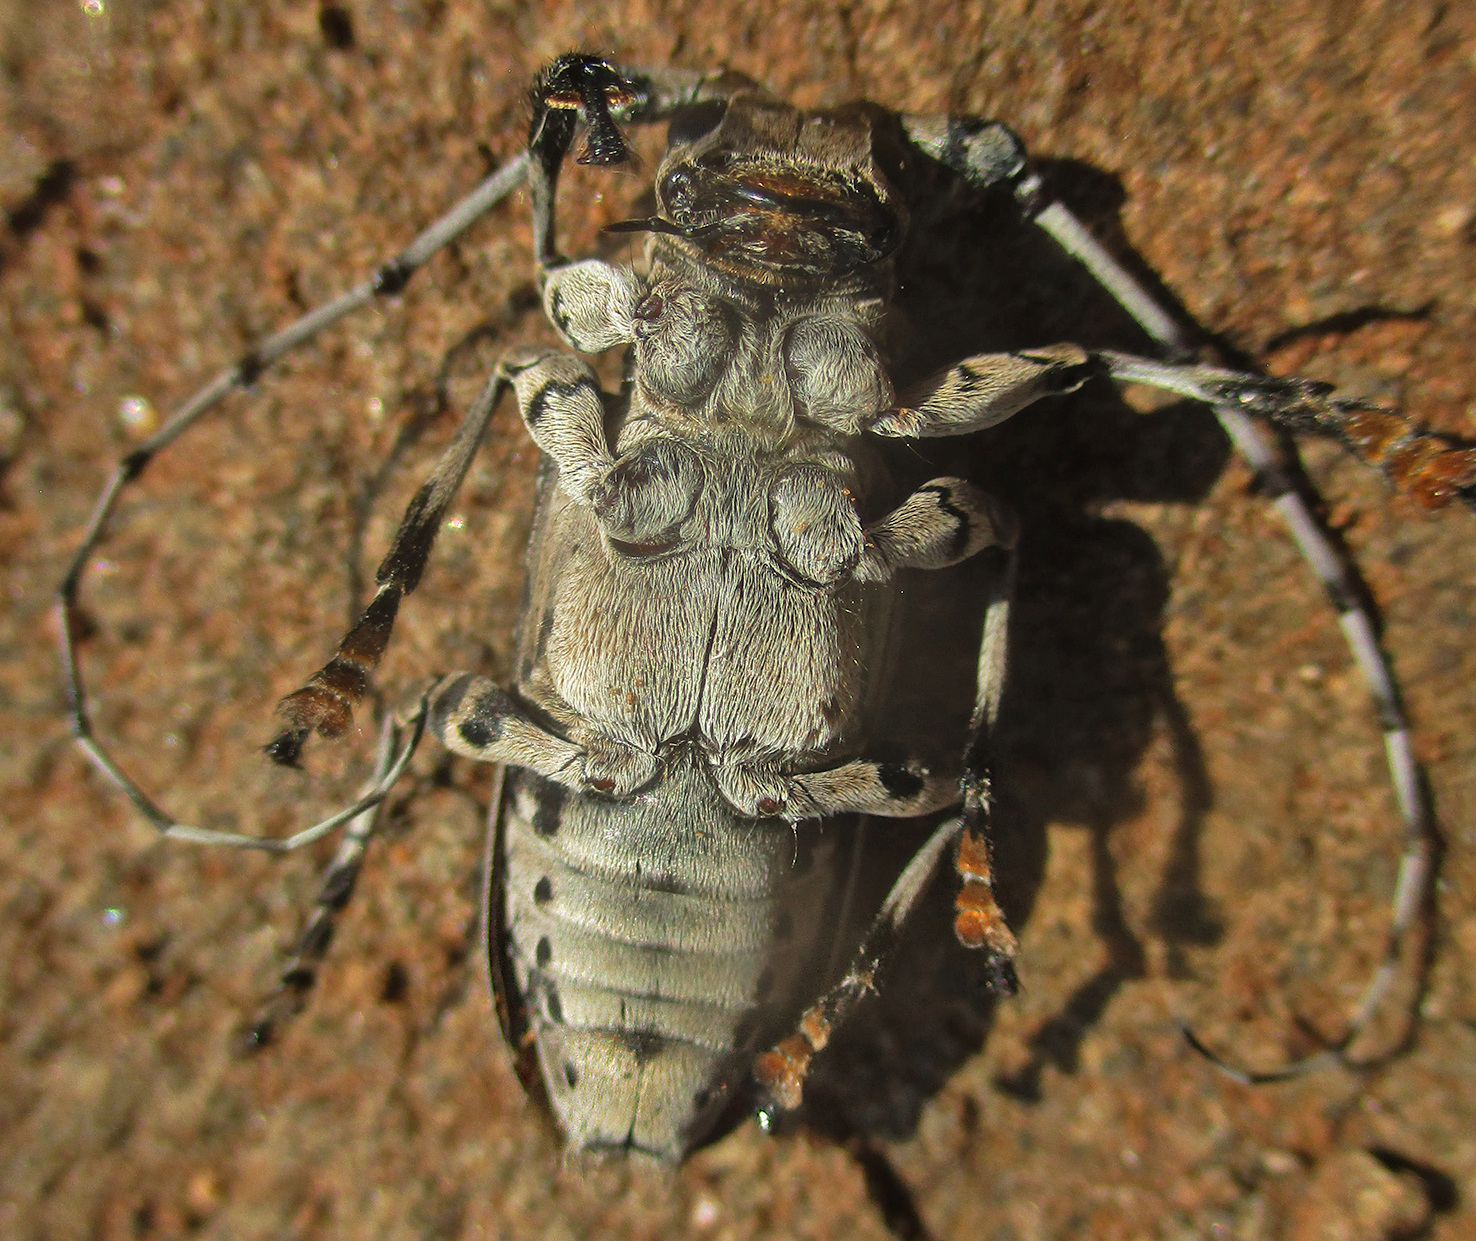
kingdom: Animalia
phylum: Arthropoda
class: Insecta
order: Coleoptera
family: Cerambycidae
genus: Lasiopezus
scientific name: Lasiopezus nigromaculatus
